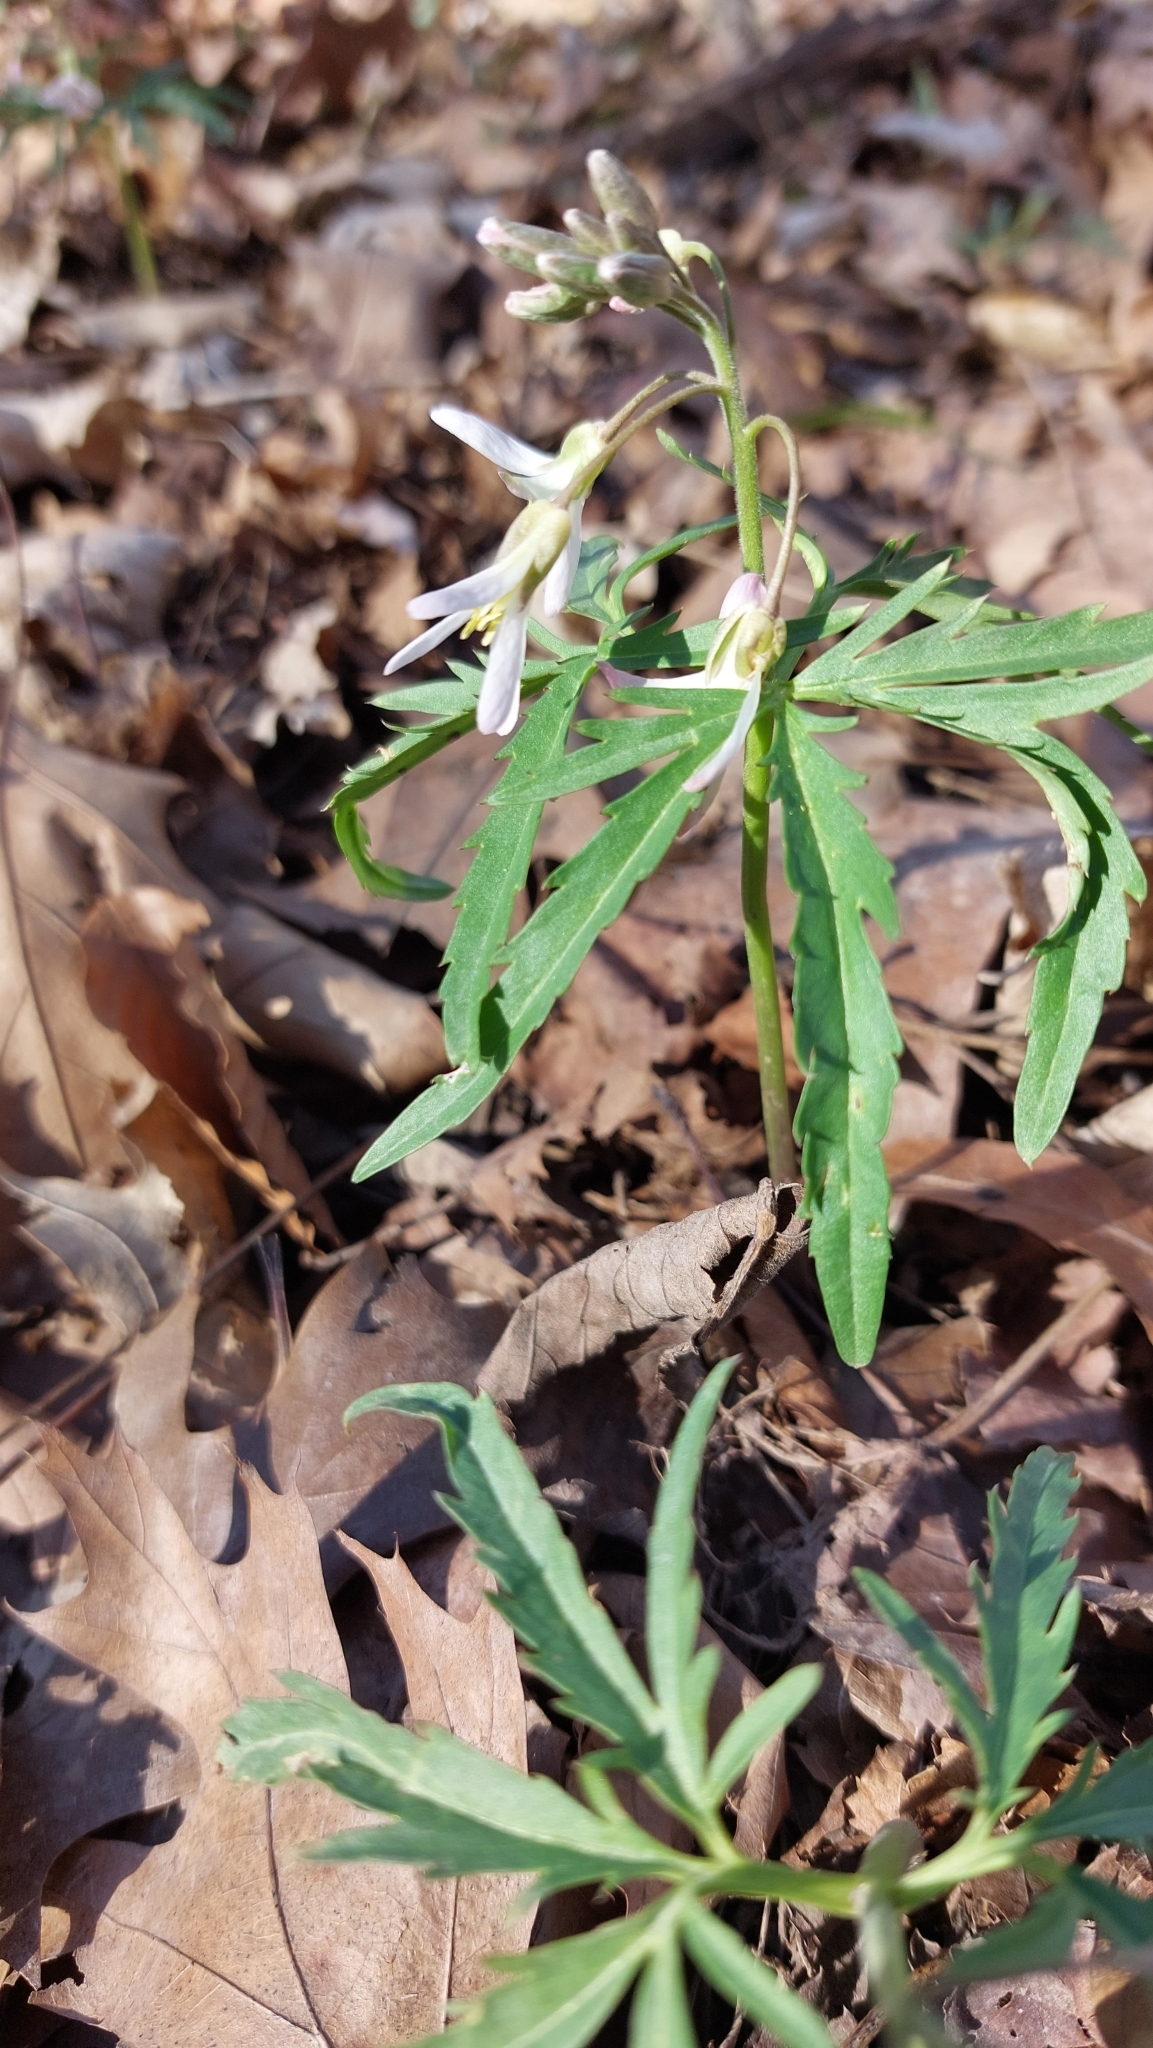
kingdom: Plantae
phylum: Tracheophyta
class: Magnoliopsida
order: Brassicales
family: Brassicaceae
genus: Cardamine
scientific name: Cardamine concatenata
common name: Cut-leaf toothcup
